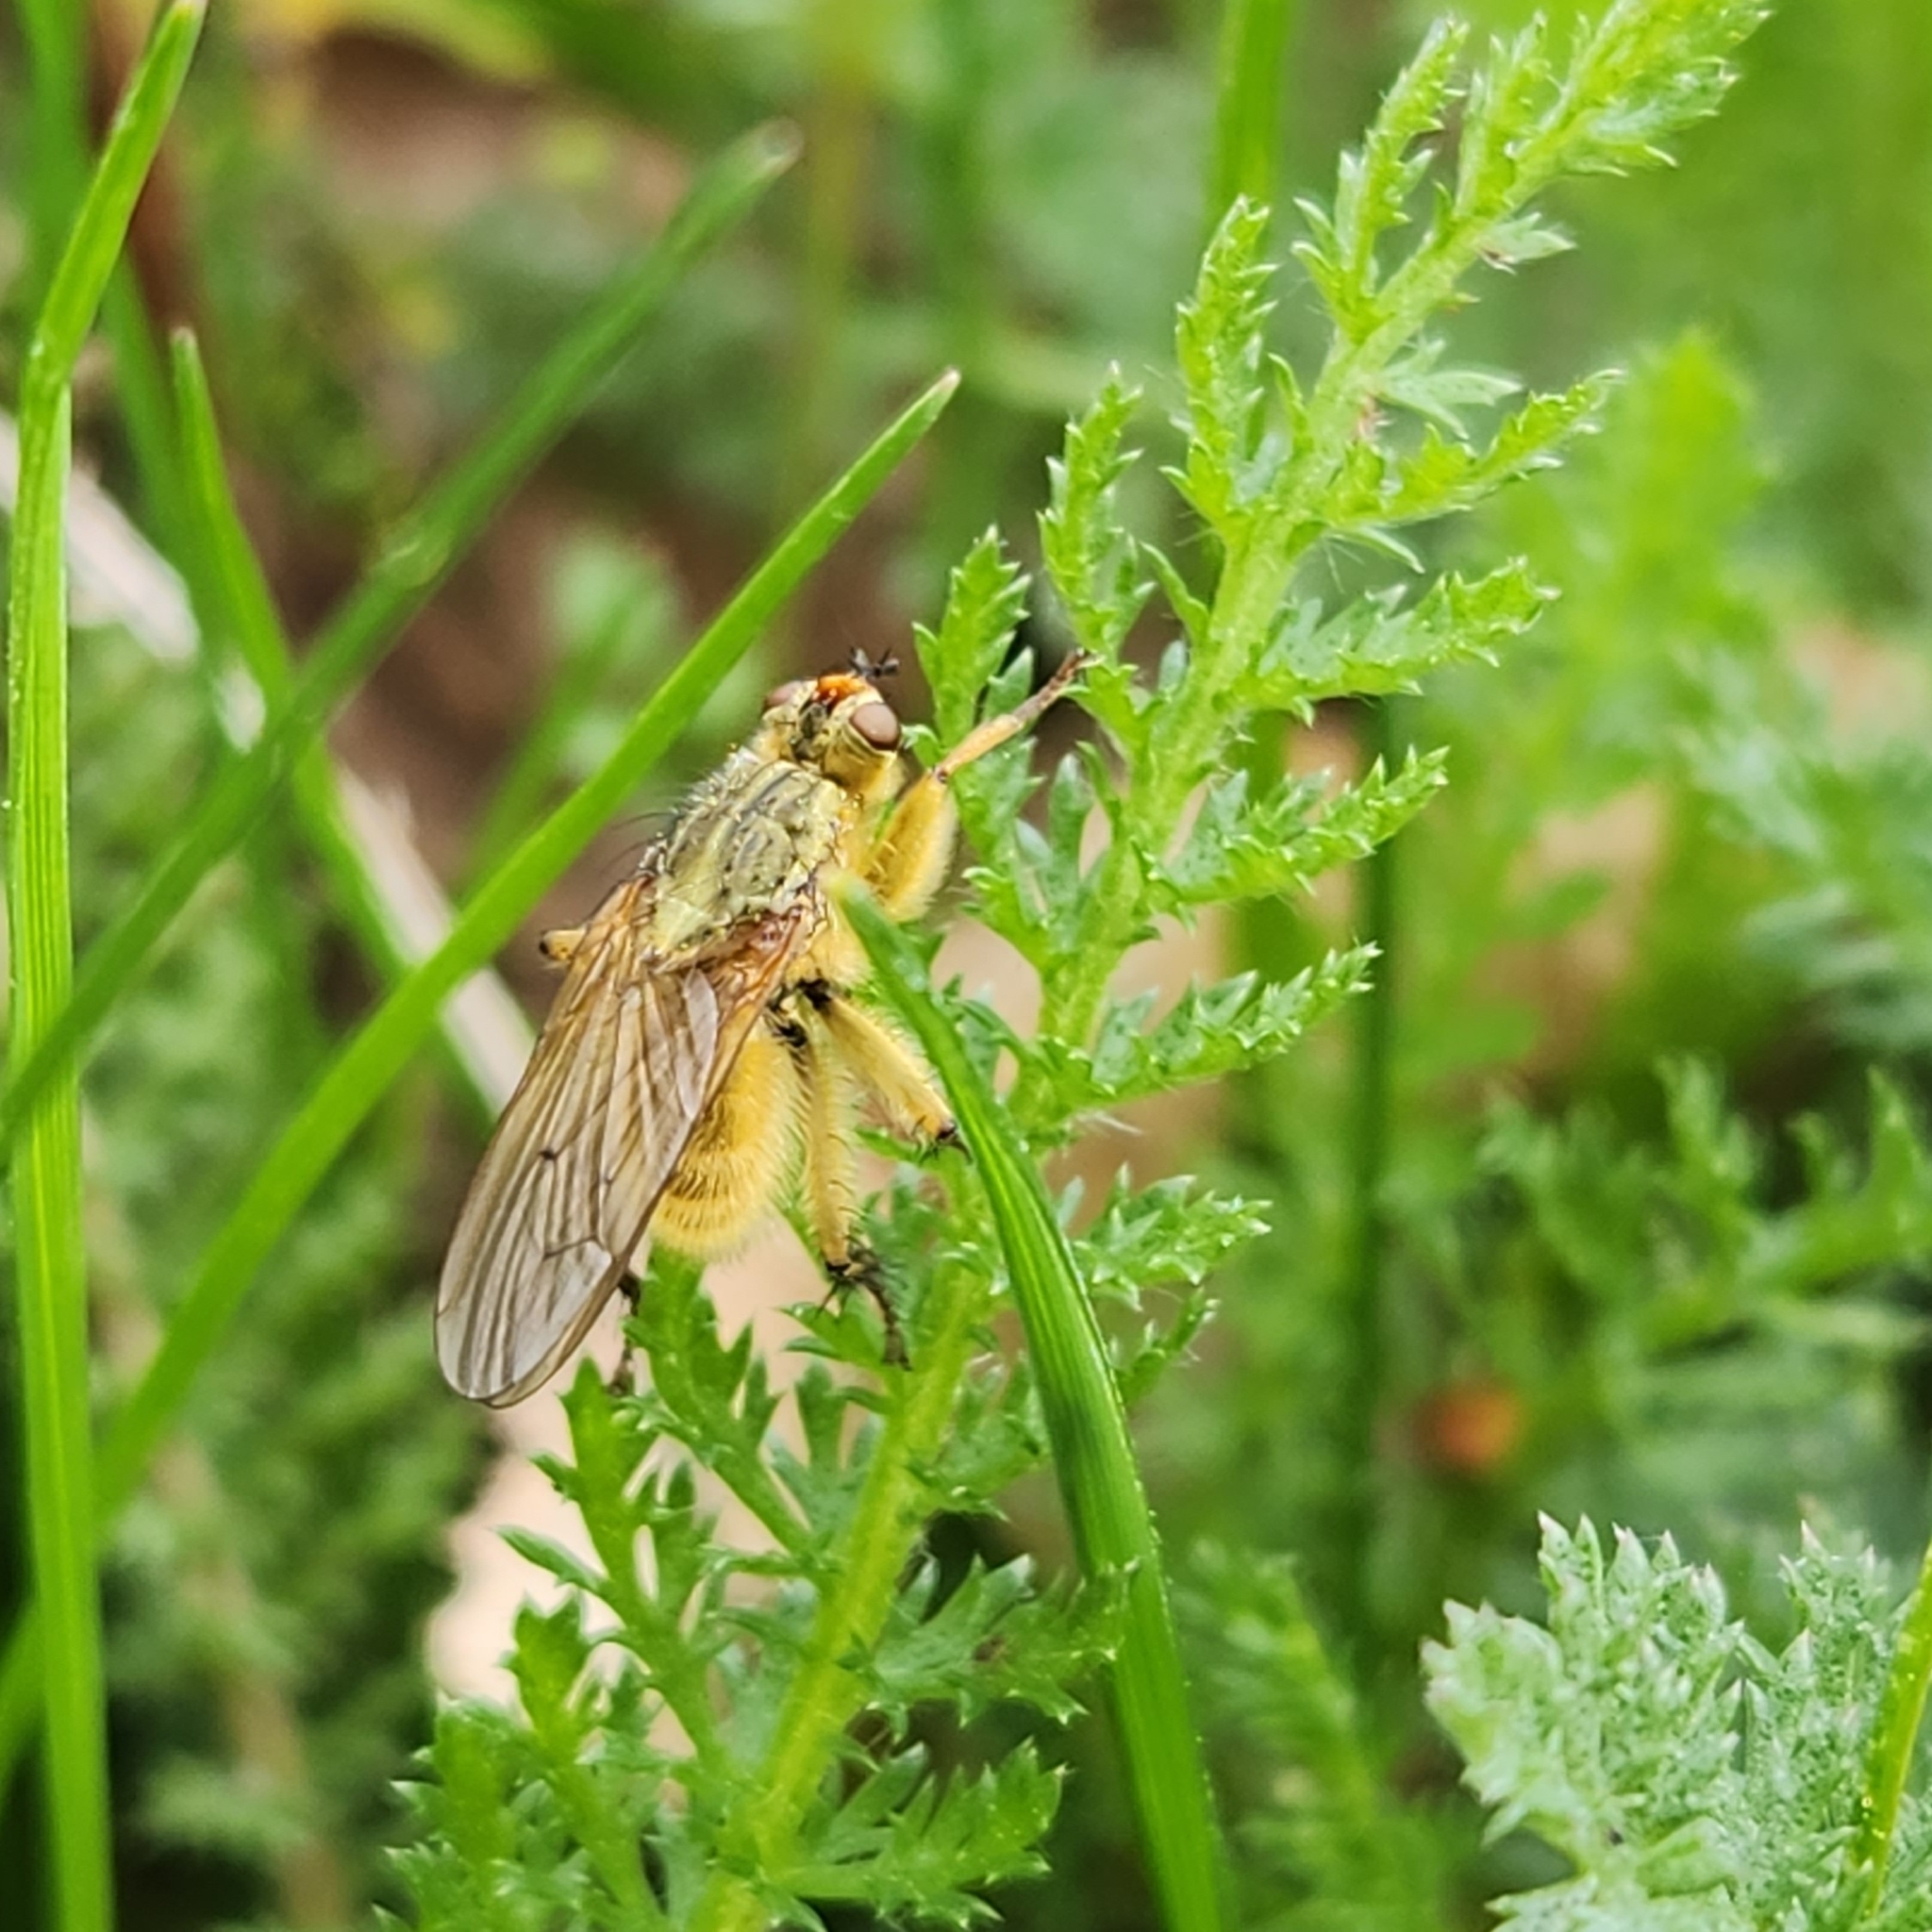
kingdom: Animalia
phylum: Arthropoda
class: Insecta
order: Diptera
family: Scathophagidae
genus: Scathophaga
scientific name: Scathophaga stercoraria
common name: Yellow dung fly
